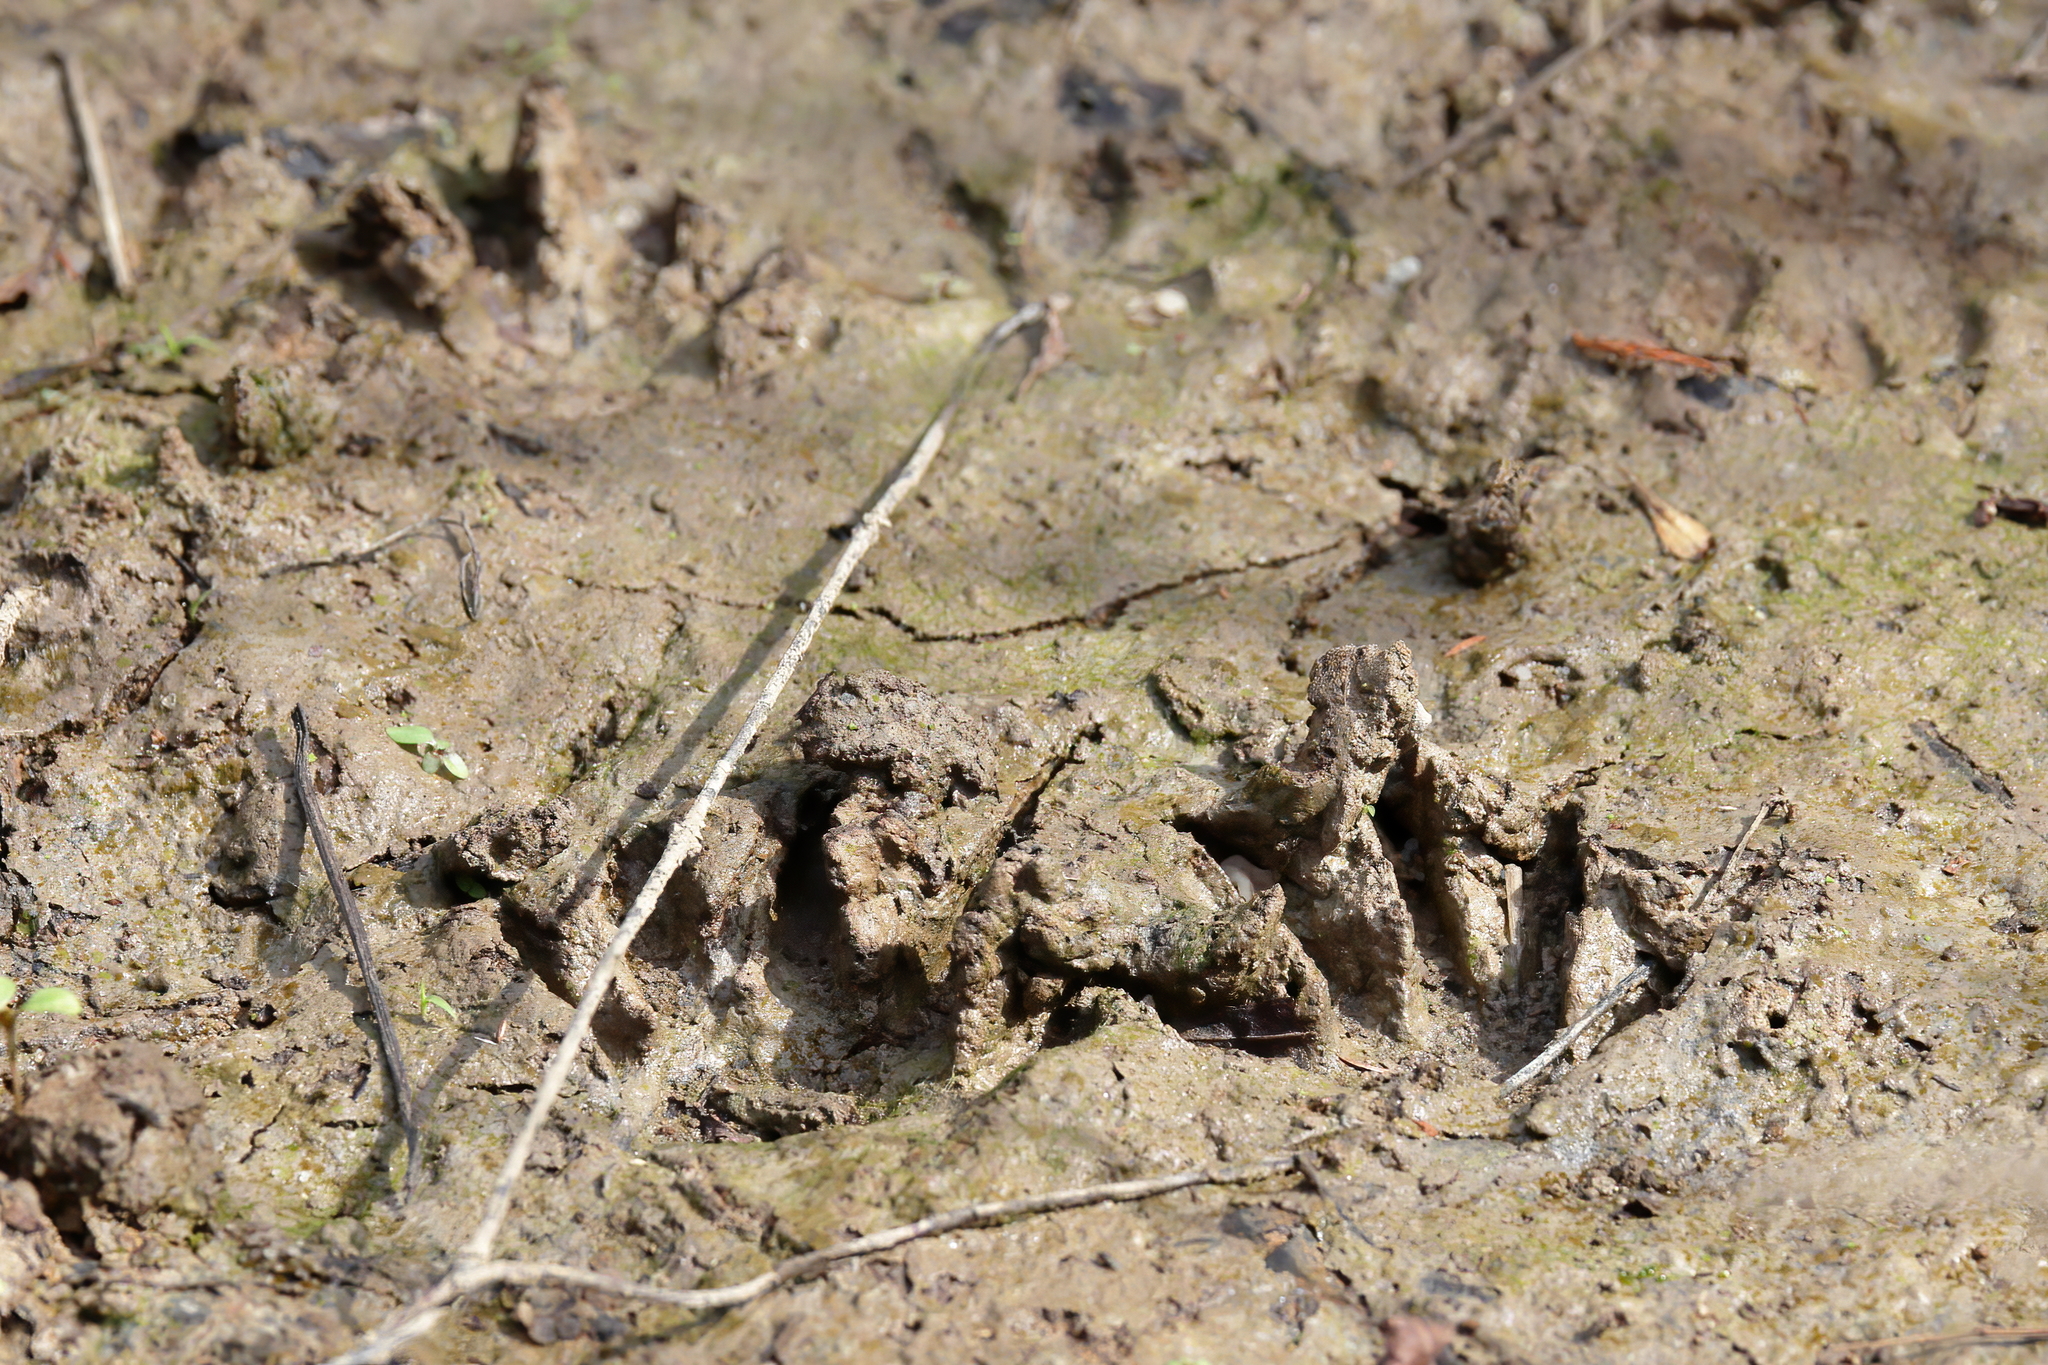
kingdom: Animalia
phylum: Chordata
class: Mammalia
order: Carnivora
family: Procyonidae
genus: Procyon
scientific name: Procyon lotor
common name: Raccoon
